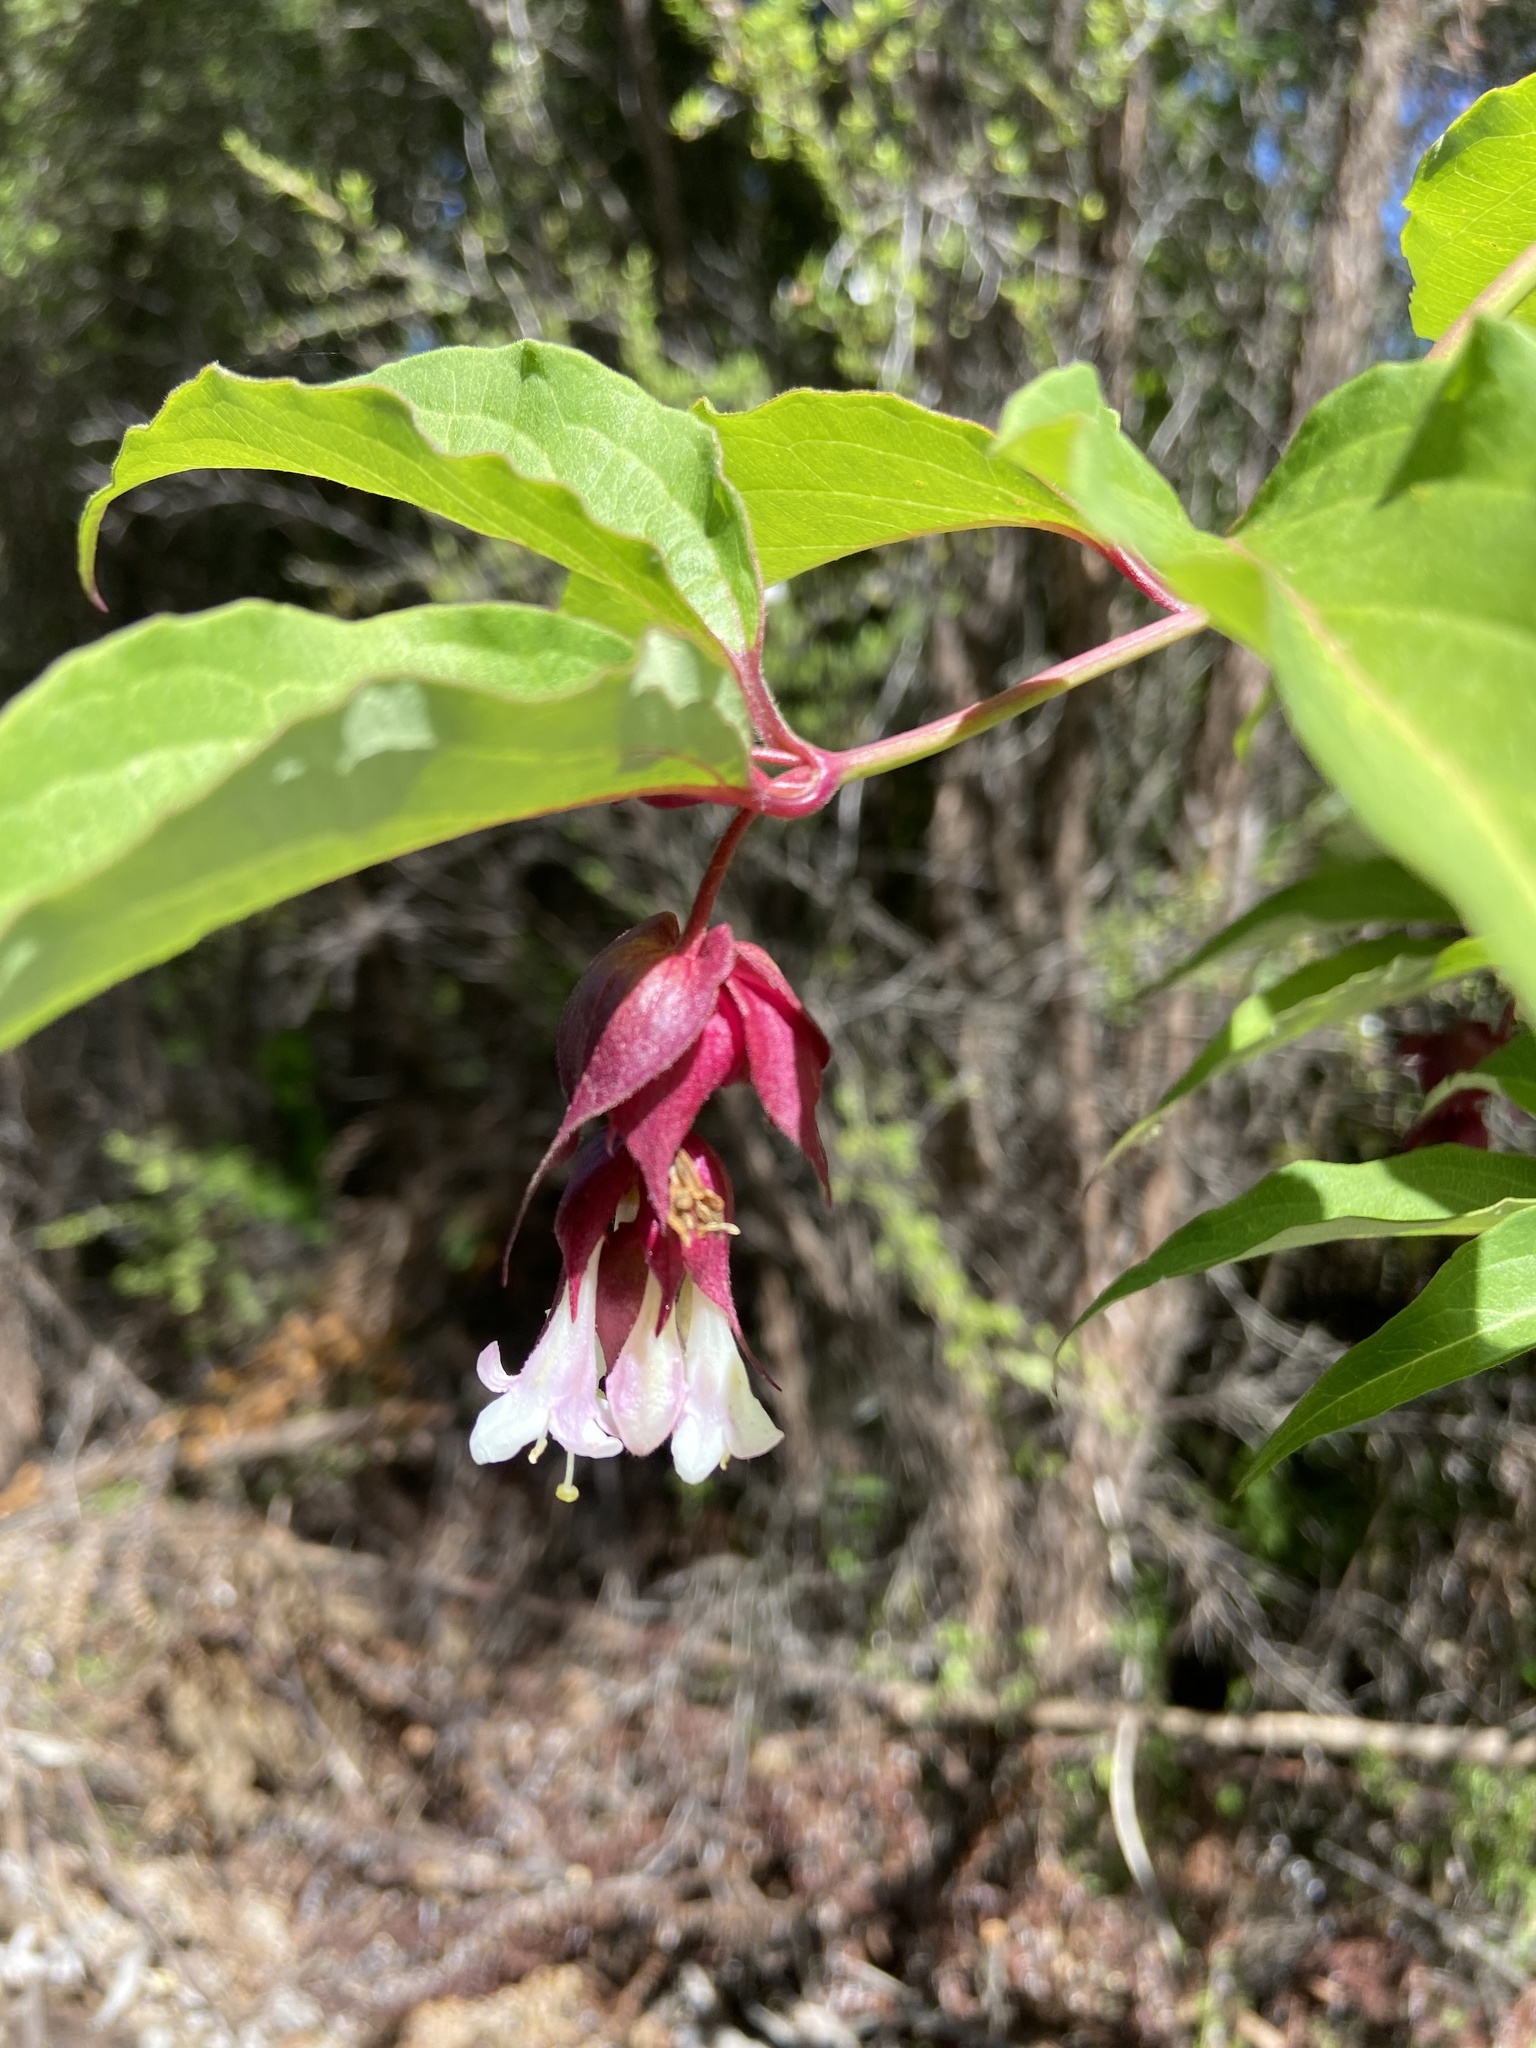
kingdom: Plantae
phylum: Tracheophyta
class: Magnoliopsida
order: Dipsacales
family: Caprifoliaceae
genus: Leycesteria
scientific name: Leycesteria formosa
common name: Himalayan honeysuckle
